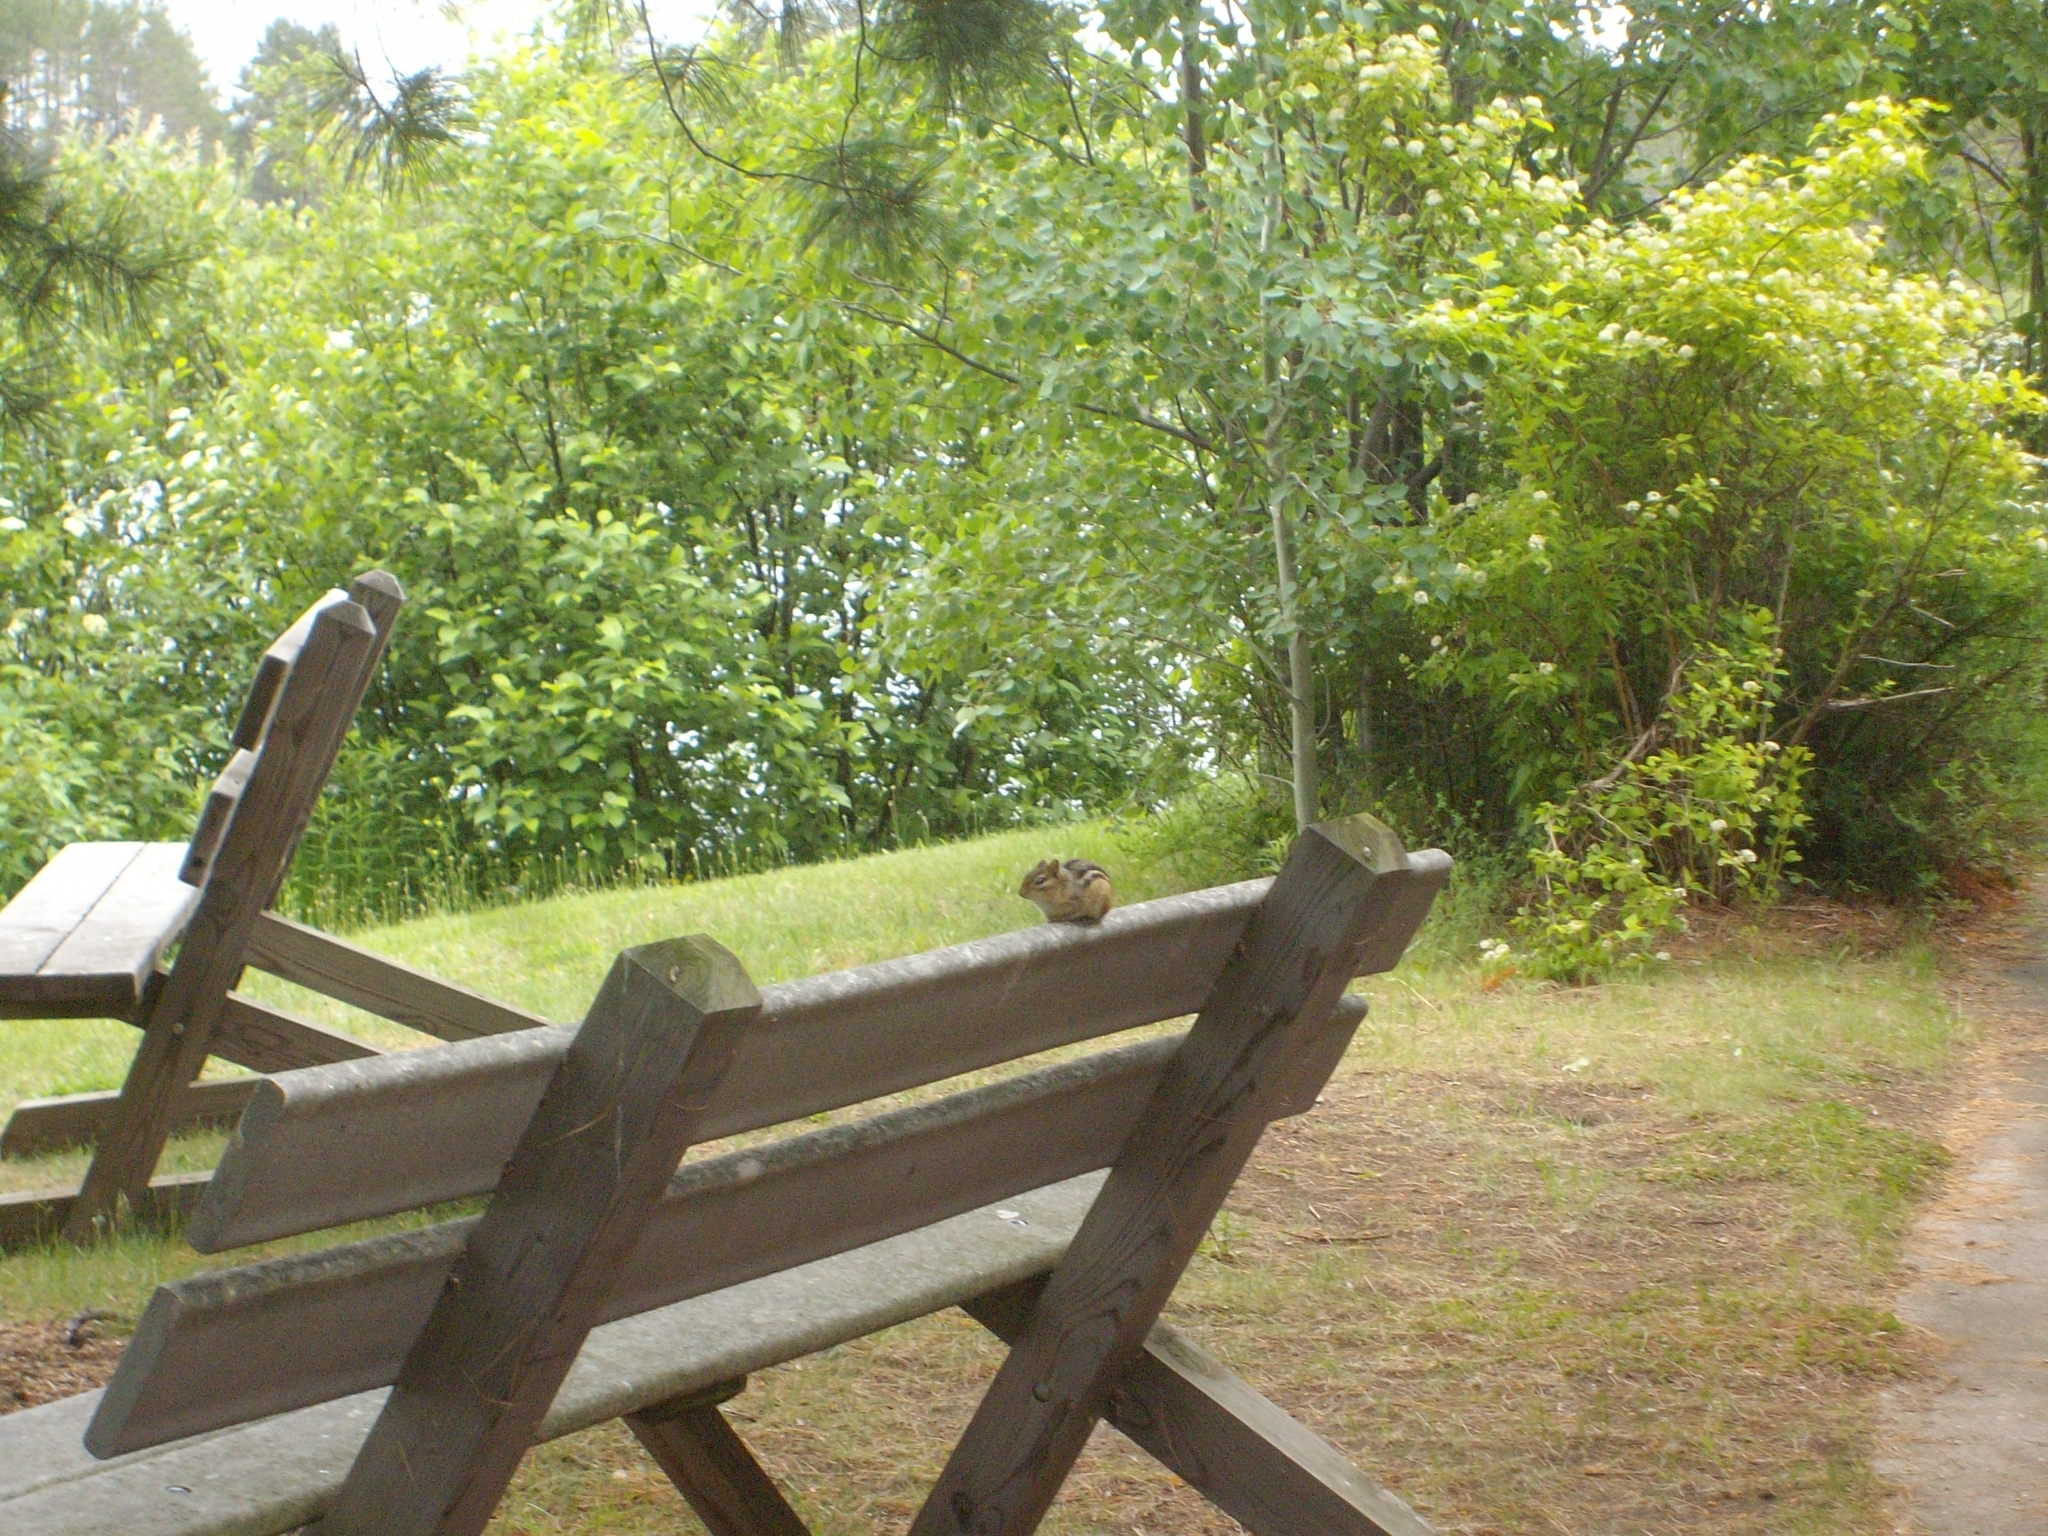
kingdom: Animalia
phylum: Chordata
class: Mammalia
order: Rodentia
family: Sciuridae
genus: Tamias
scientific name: Tamias striatus
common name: Eastern chipmunk
